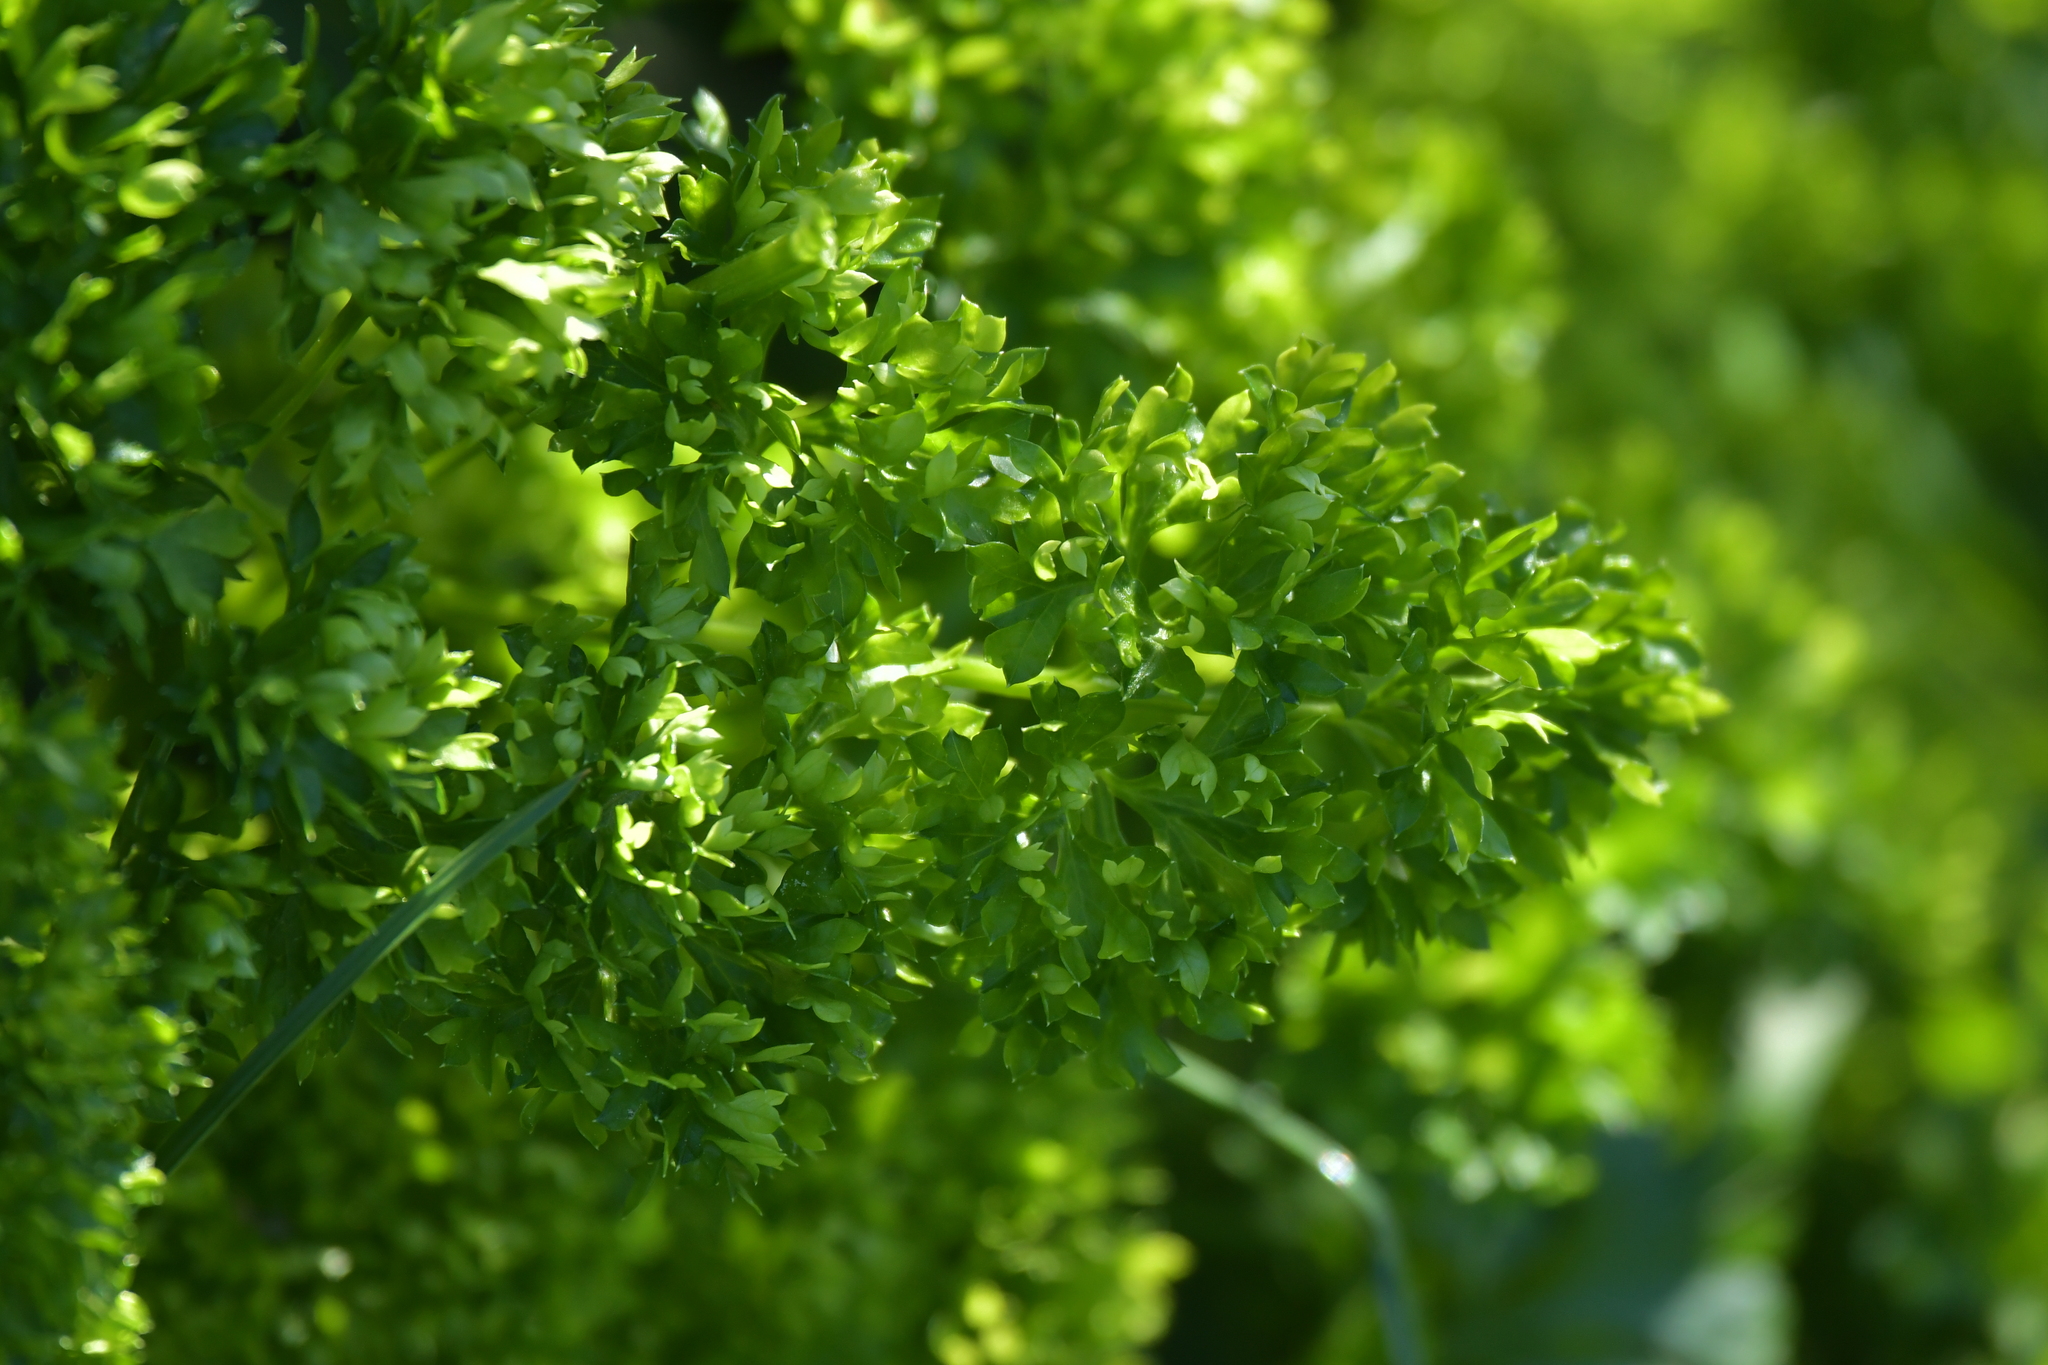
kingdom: Plantae
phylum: Tracheophyta
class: Magnoliopsida
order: Apiales
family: Apiaceae
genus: Petroselinum
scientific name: Petroselinum crispum
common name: Parsley
